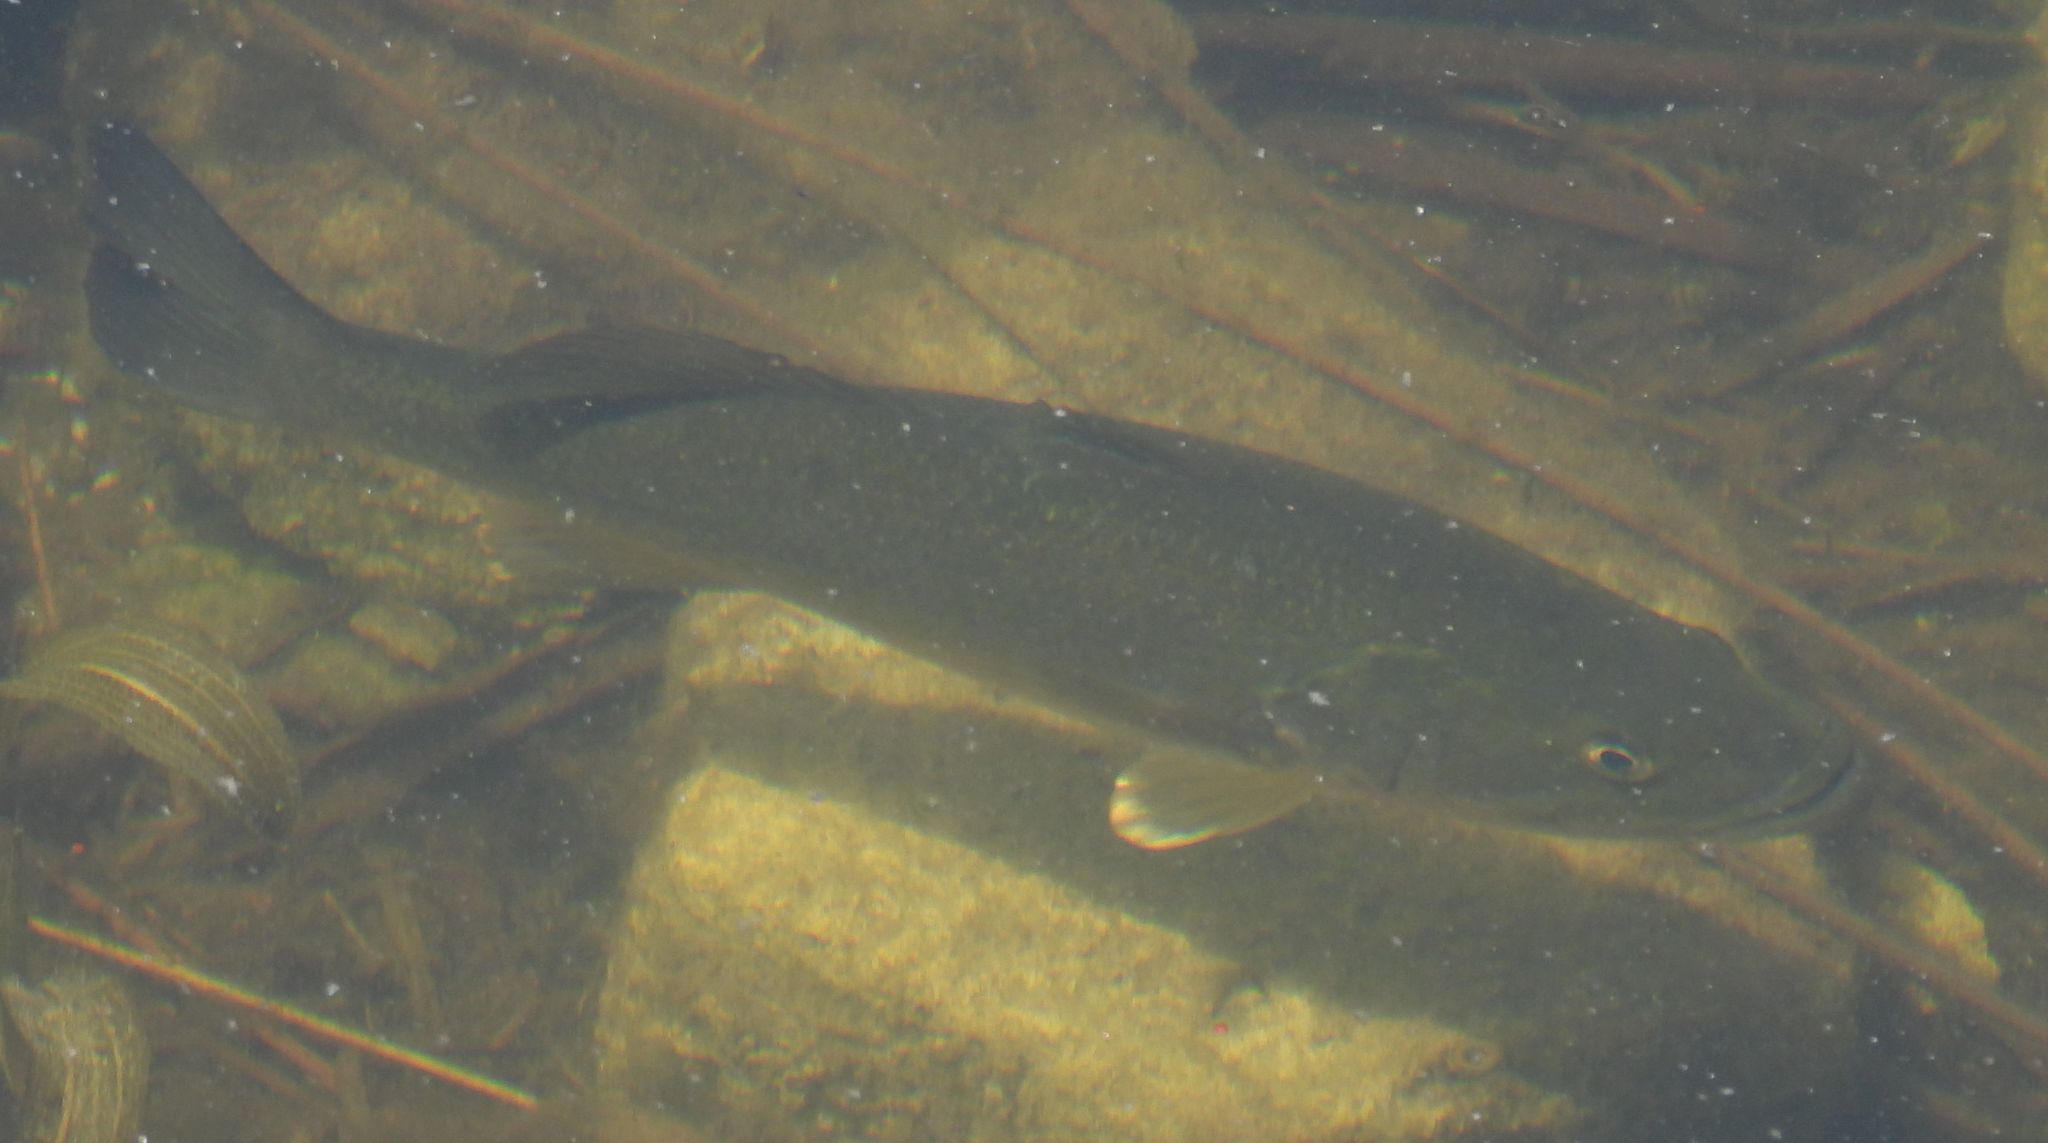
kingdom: Animalia
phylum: Chordata
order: Perciformes
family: Centrarchidae
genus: Micropterus
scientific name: Micropterus
